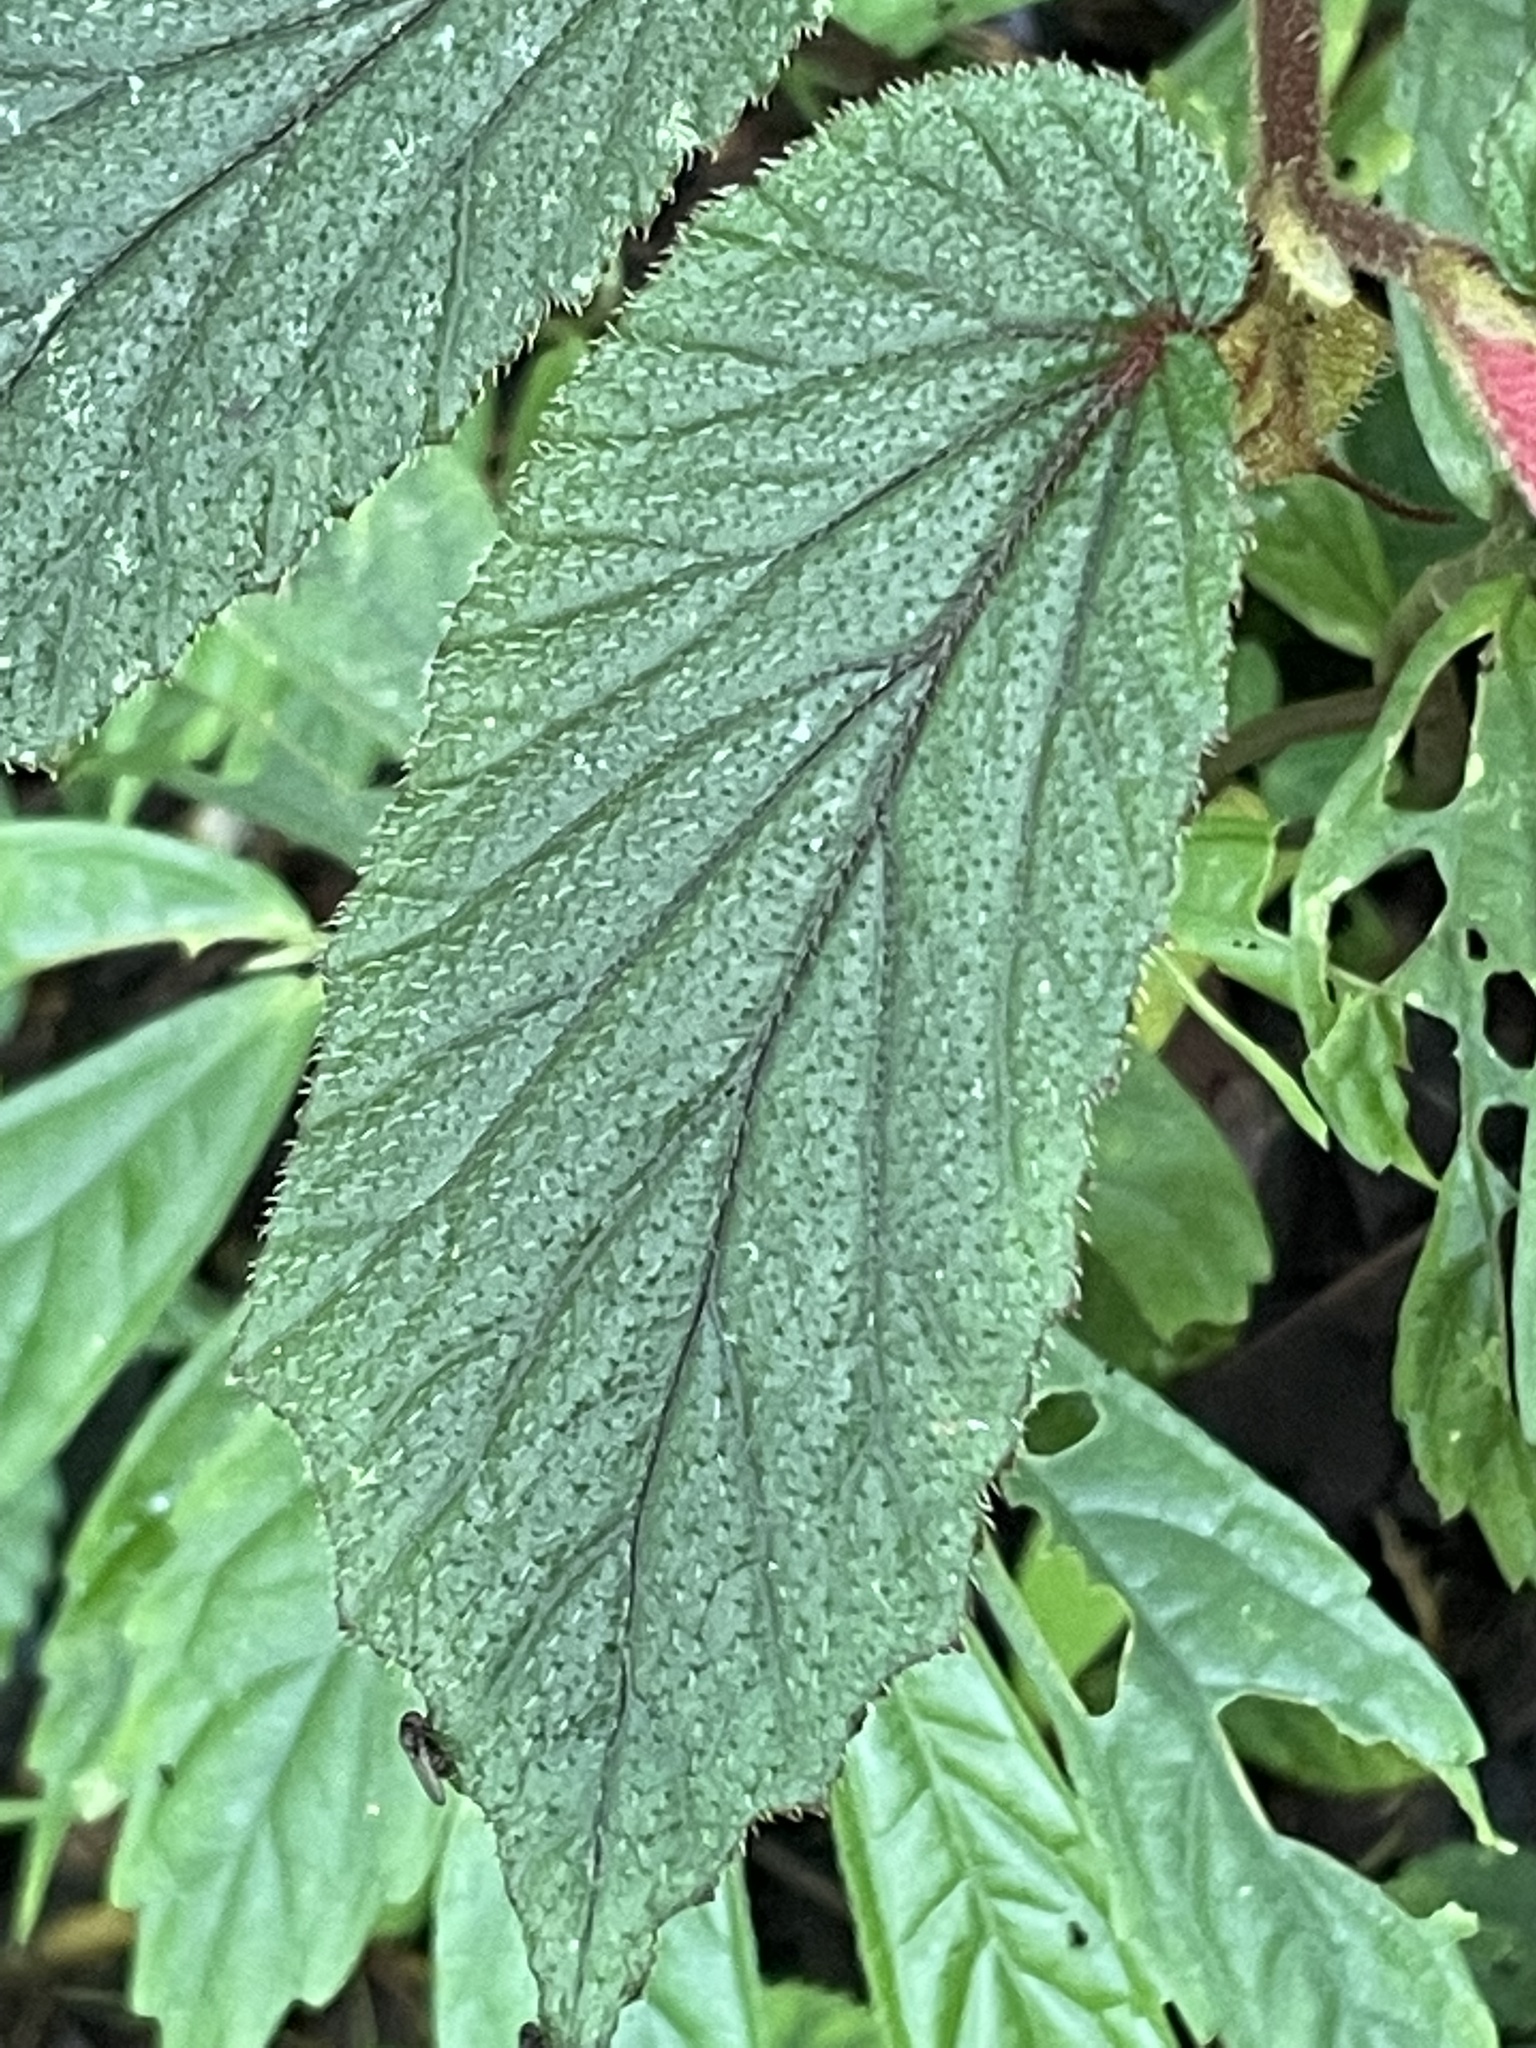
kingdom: Plantae
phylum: Tracheophyta
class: Magnoliopsida
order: Cucurbitales
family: Begoniaceae
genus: Begonia
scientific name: Begonia hispidissima
